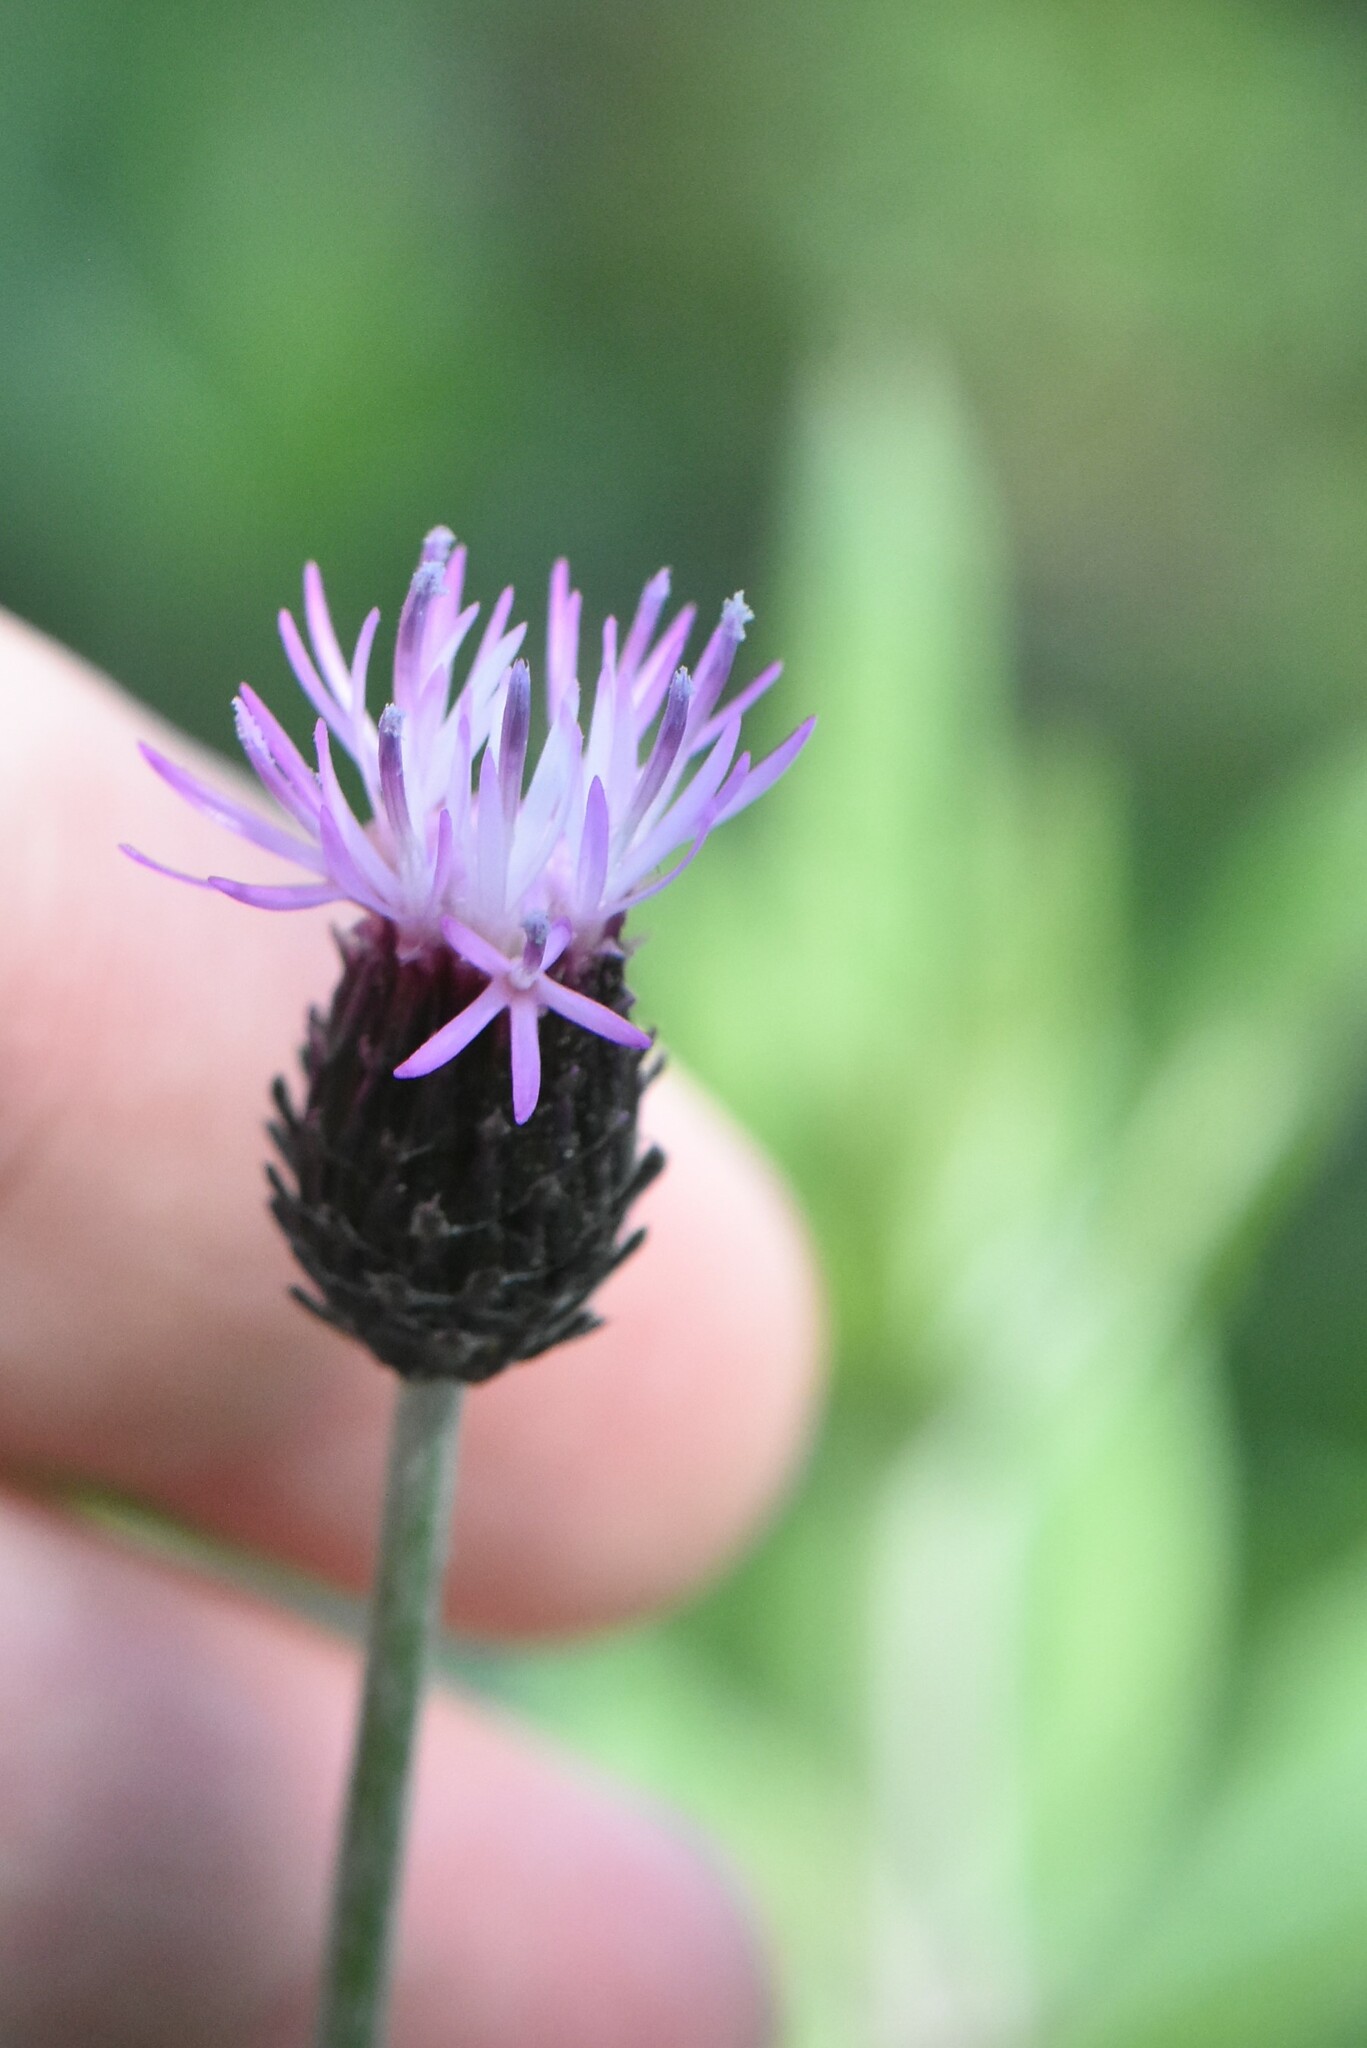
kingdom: Plantae
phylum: Tracheophyta
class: Magnoliopsida
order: Asterales
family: Asteraceae
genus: Cirsium
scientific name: Cirsium arvense
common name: Creeping thistle
